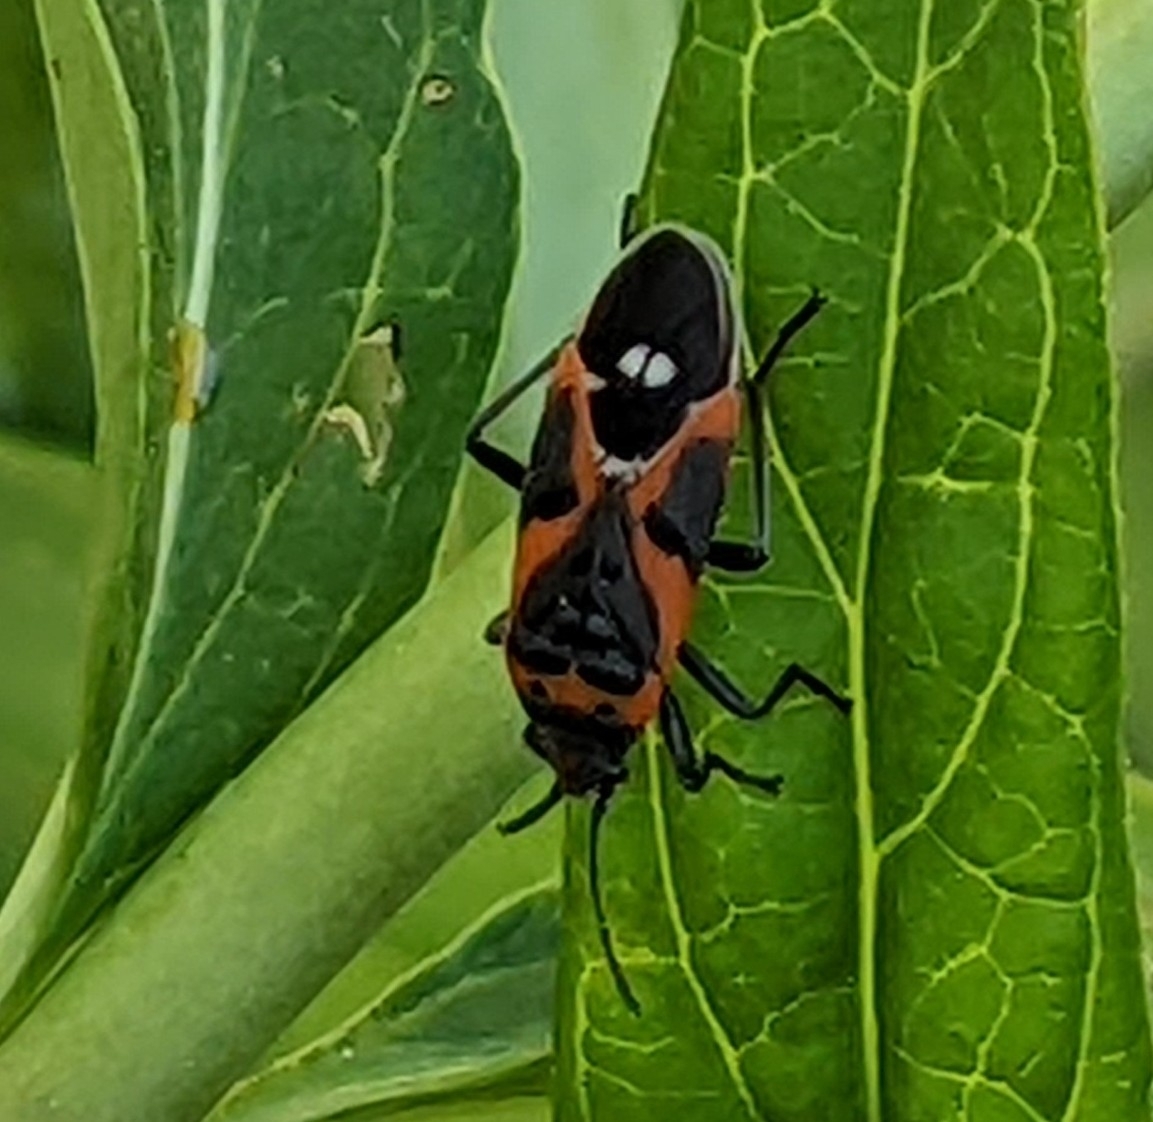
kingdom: Animalia
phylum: Arthropoda
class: Insecta
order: Hemiptera
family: Lygaeidae
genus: Lygaeus
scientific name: Lygaeus kalmii
